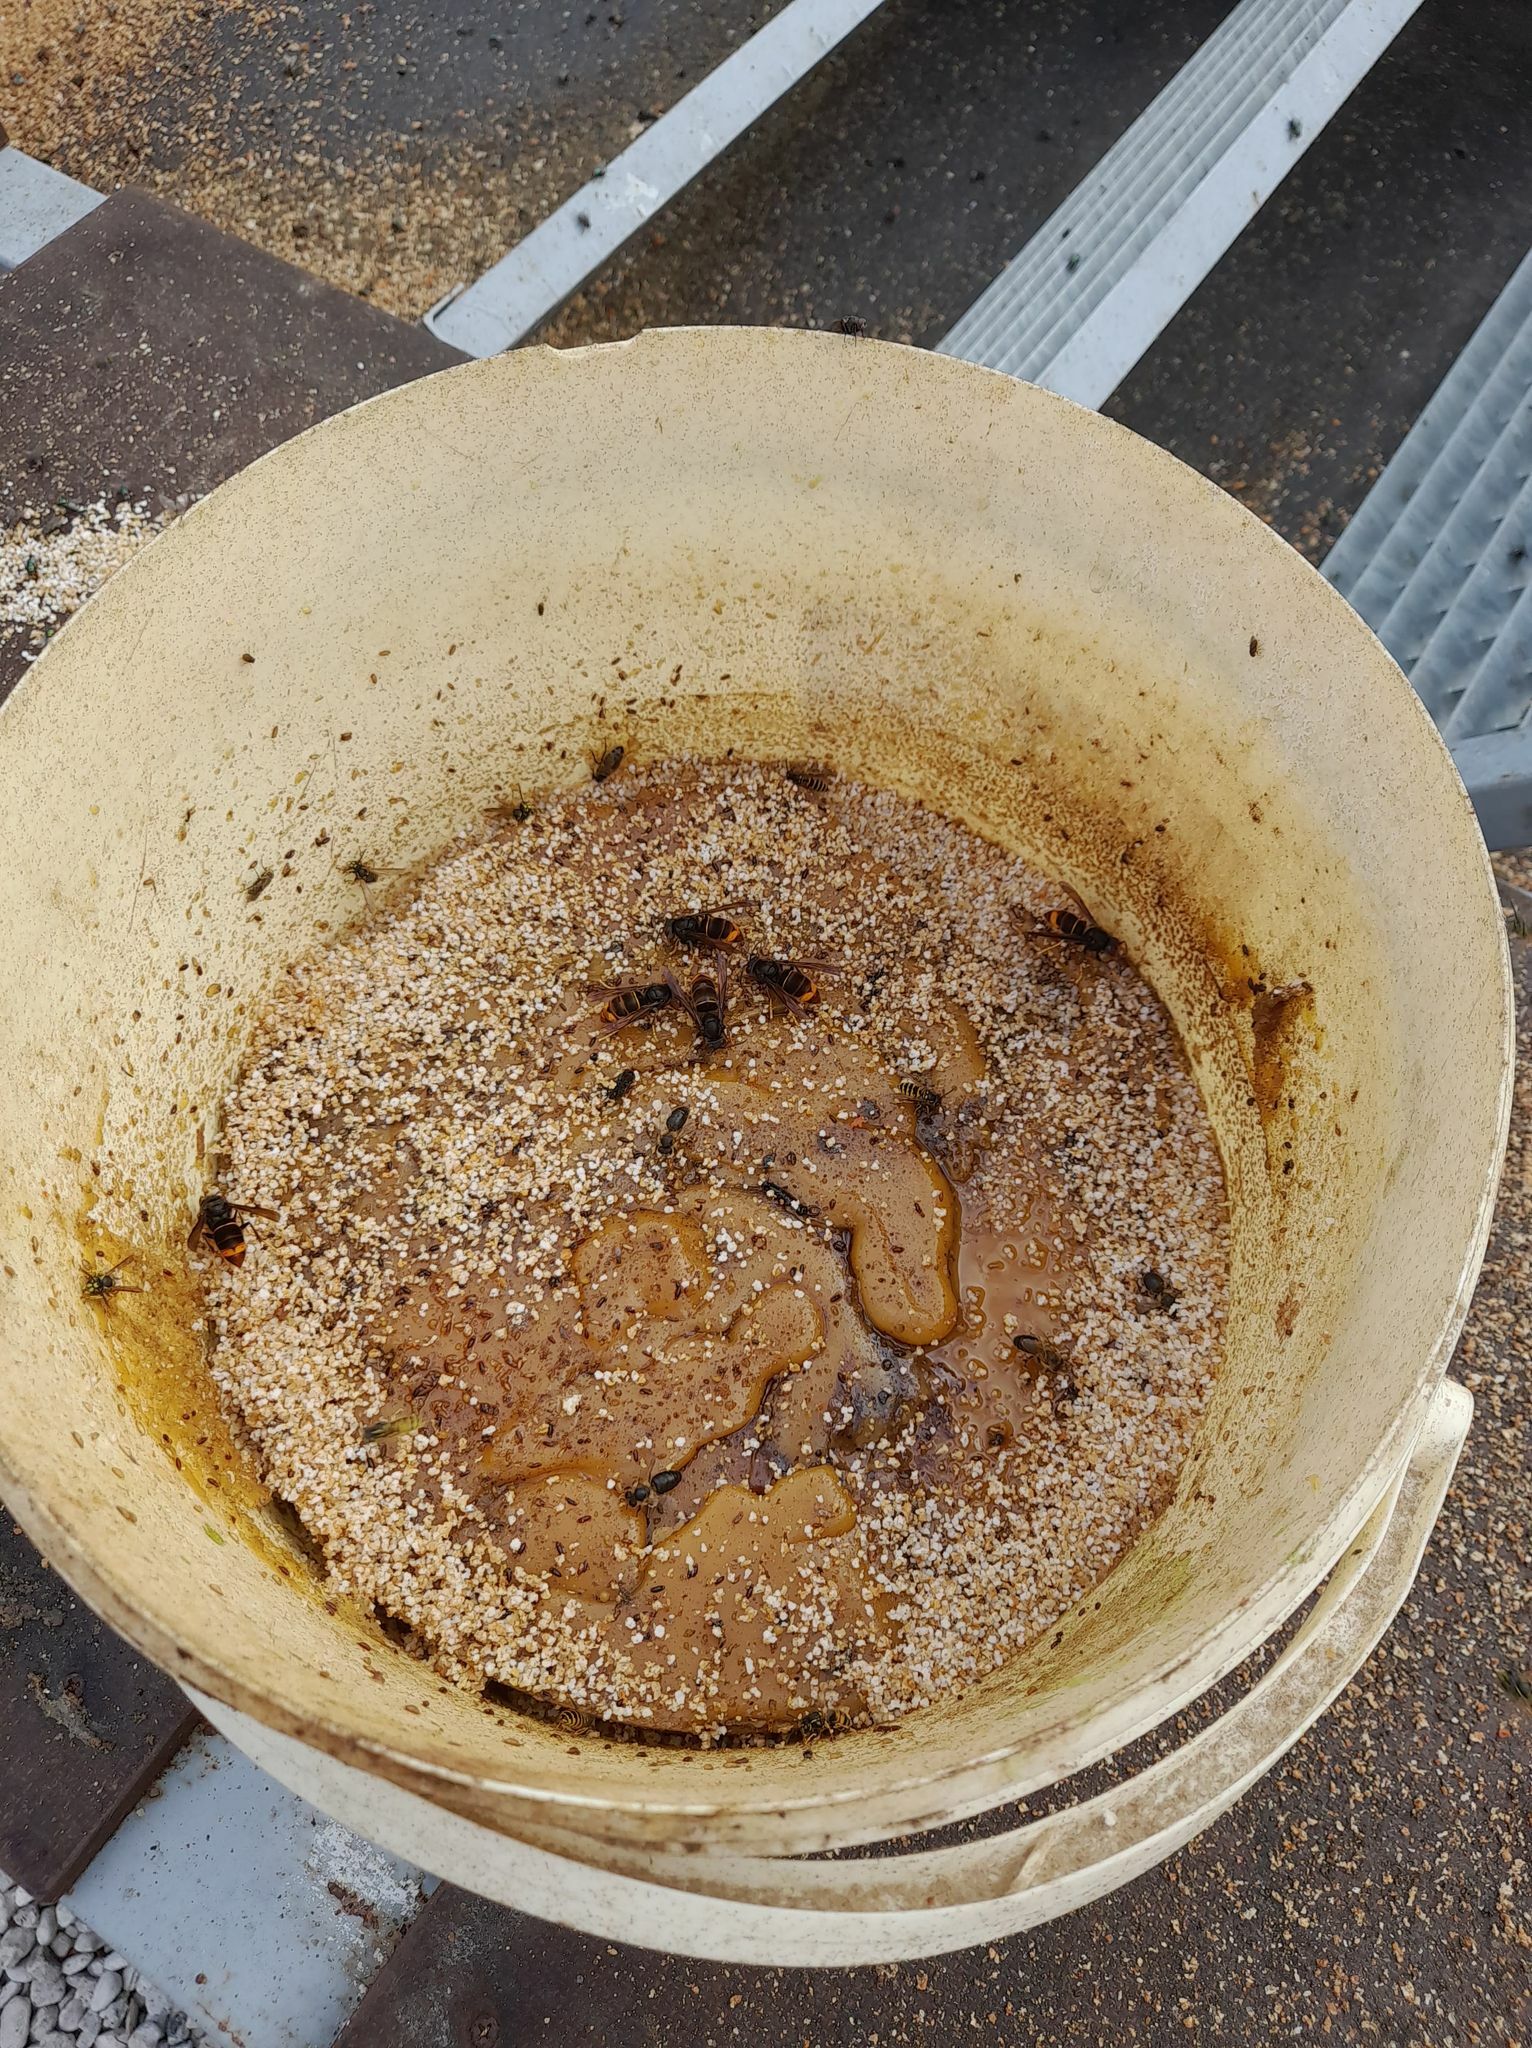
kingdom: Animalia
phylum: Arthropoda
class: Insecta
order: Hymenoptera
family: Vespidae
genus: Vespa
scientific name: Vespa velutina
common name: Asian hornet
